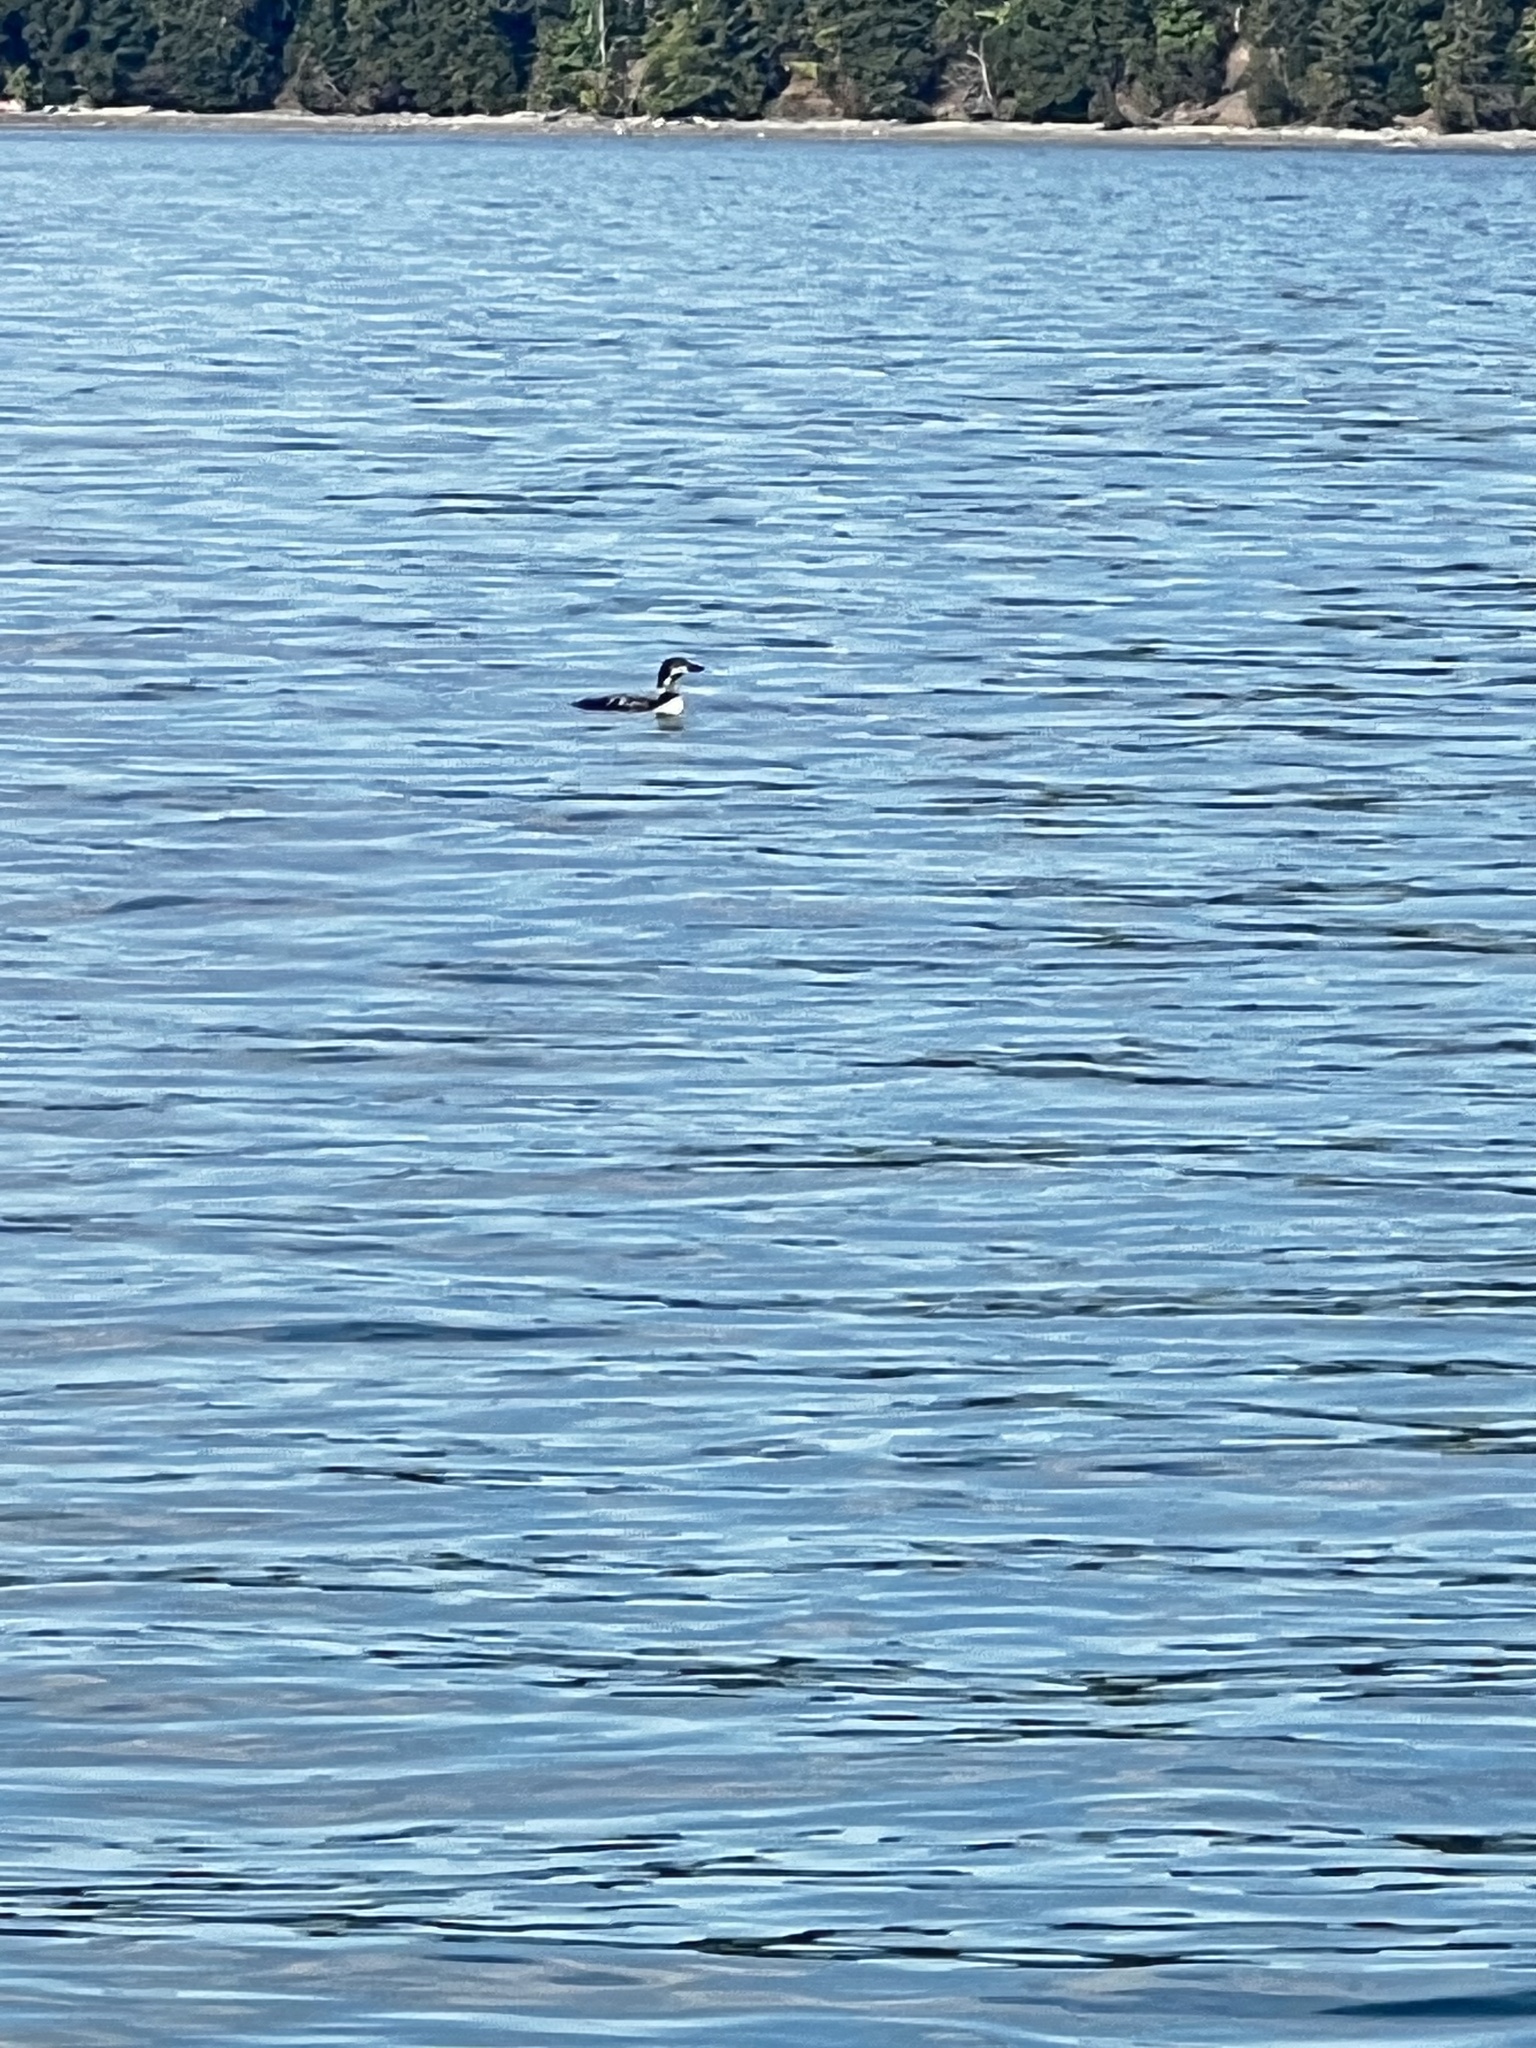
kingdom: Animalia
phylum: Chordata
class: Aves
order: Gaviiformes
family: Gaviidae
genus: Gavia
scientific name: Gavia immer
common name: Common loon
